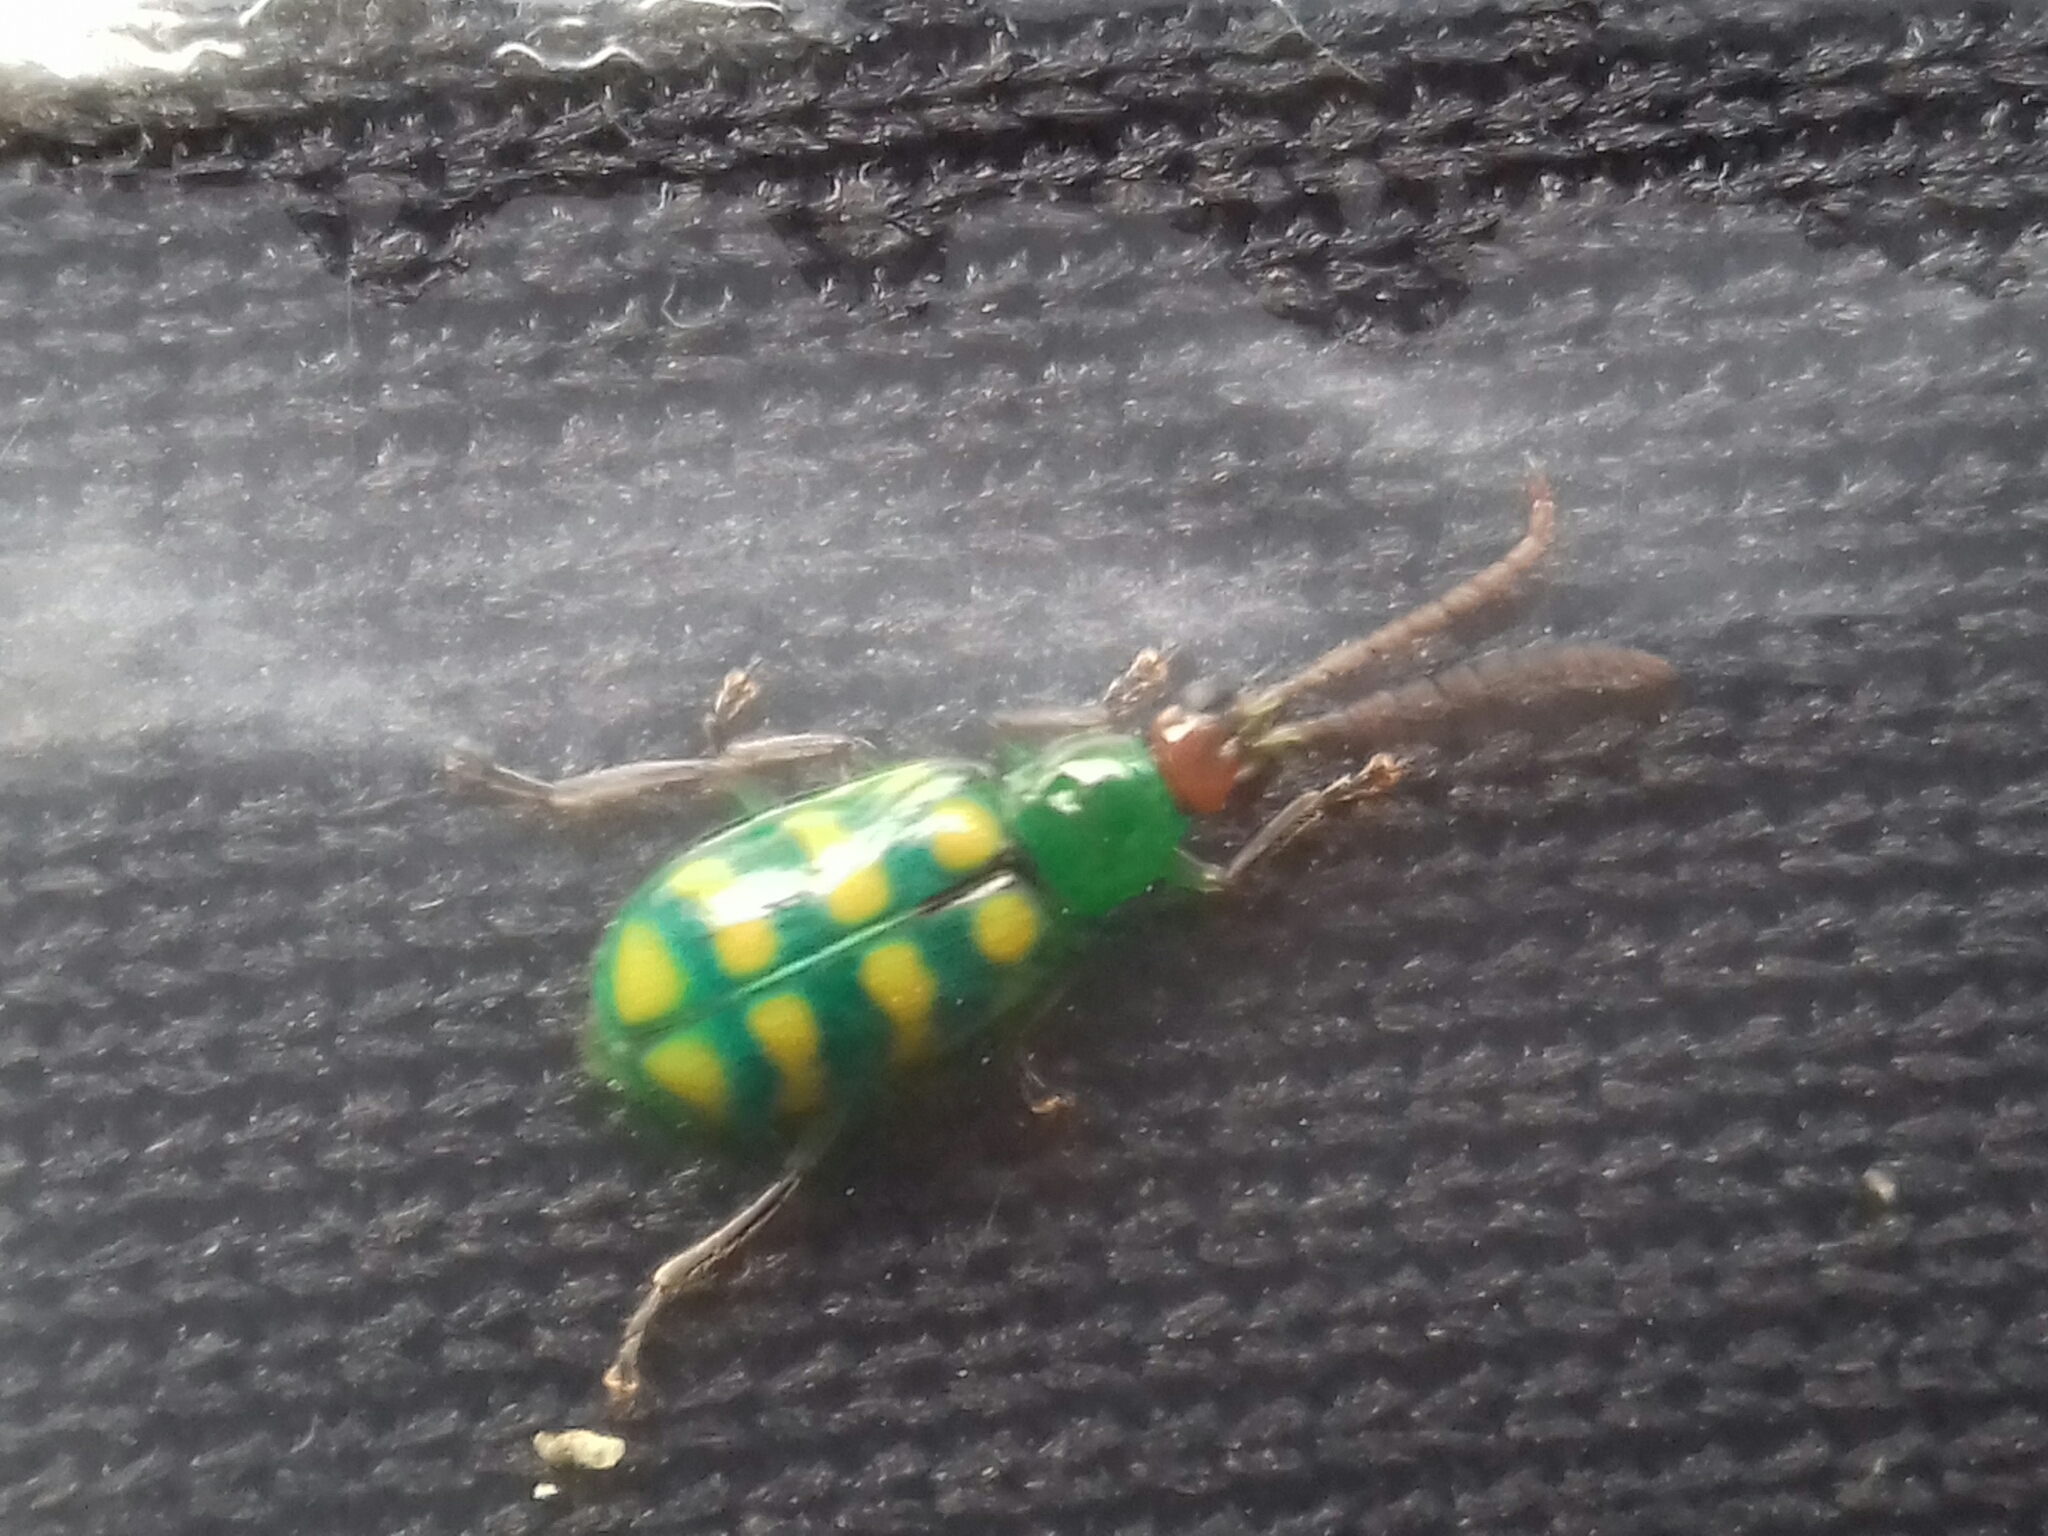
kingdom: Animalia
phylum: Arthropoda
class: Insecta
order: Coleoptera
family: Chrysomelidae
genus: Diabrotica
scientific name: Diabrotica balteata
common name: Leaf beetle
